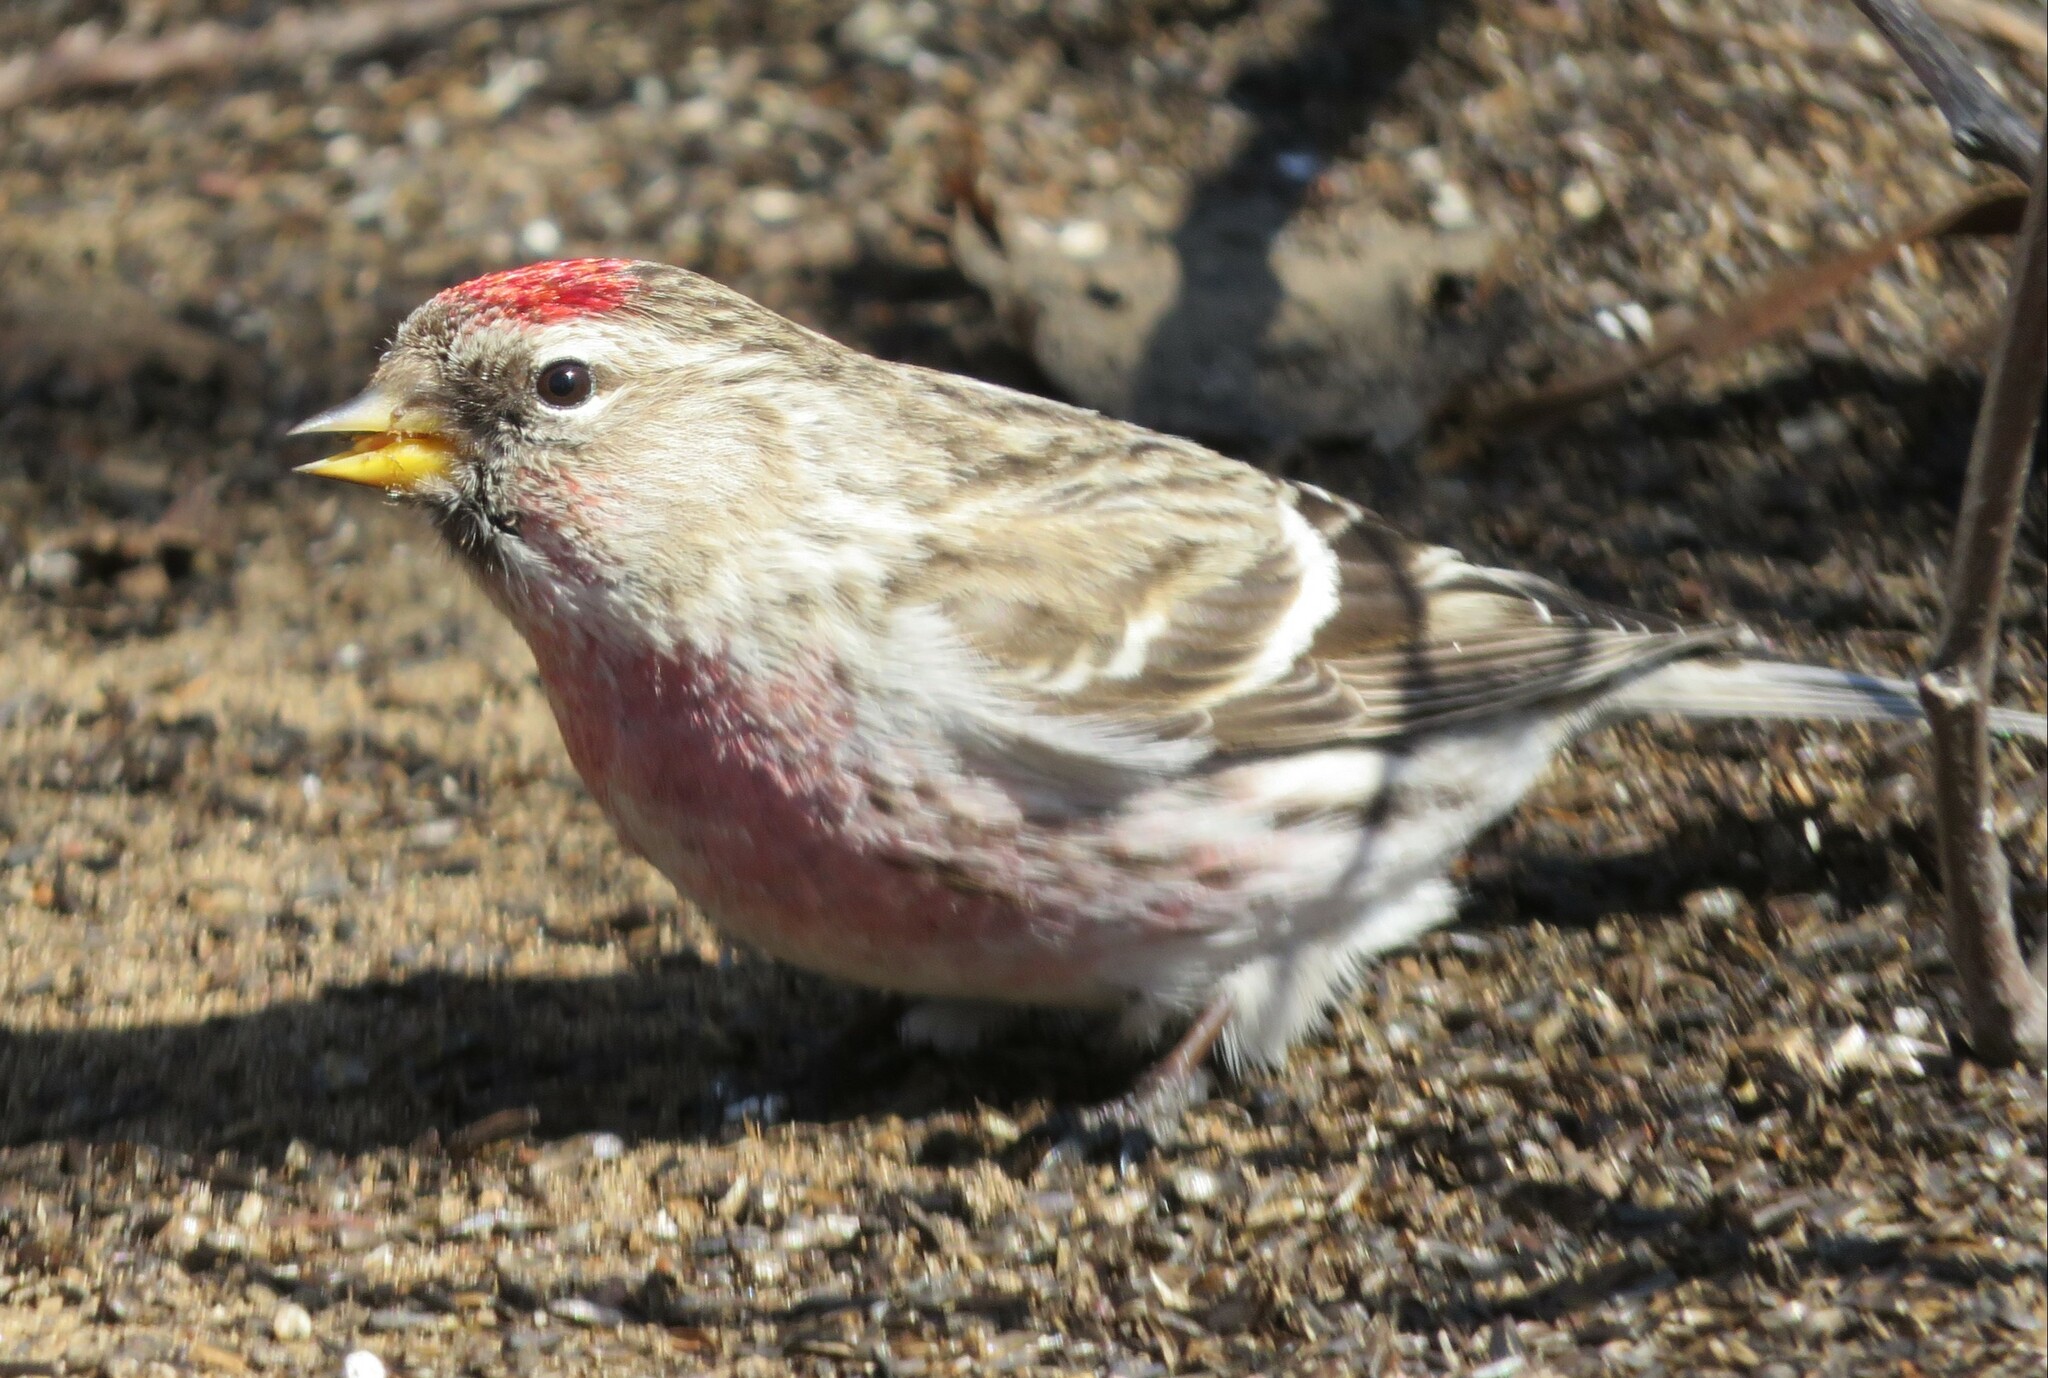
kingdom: Animalia
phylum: Chordata
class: Aves
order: Passeriformes
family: Fringillidae
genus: Acanthis
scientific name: Acanthis flammea
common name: Common redpoll
